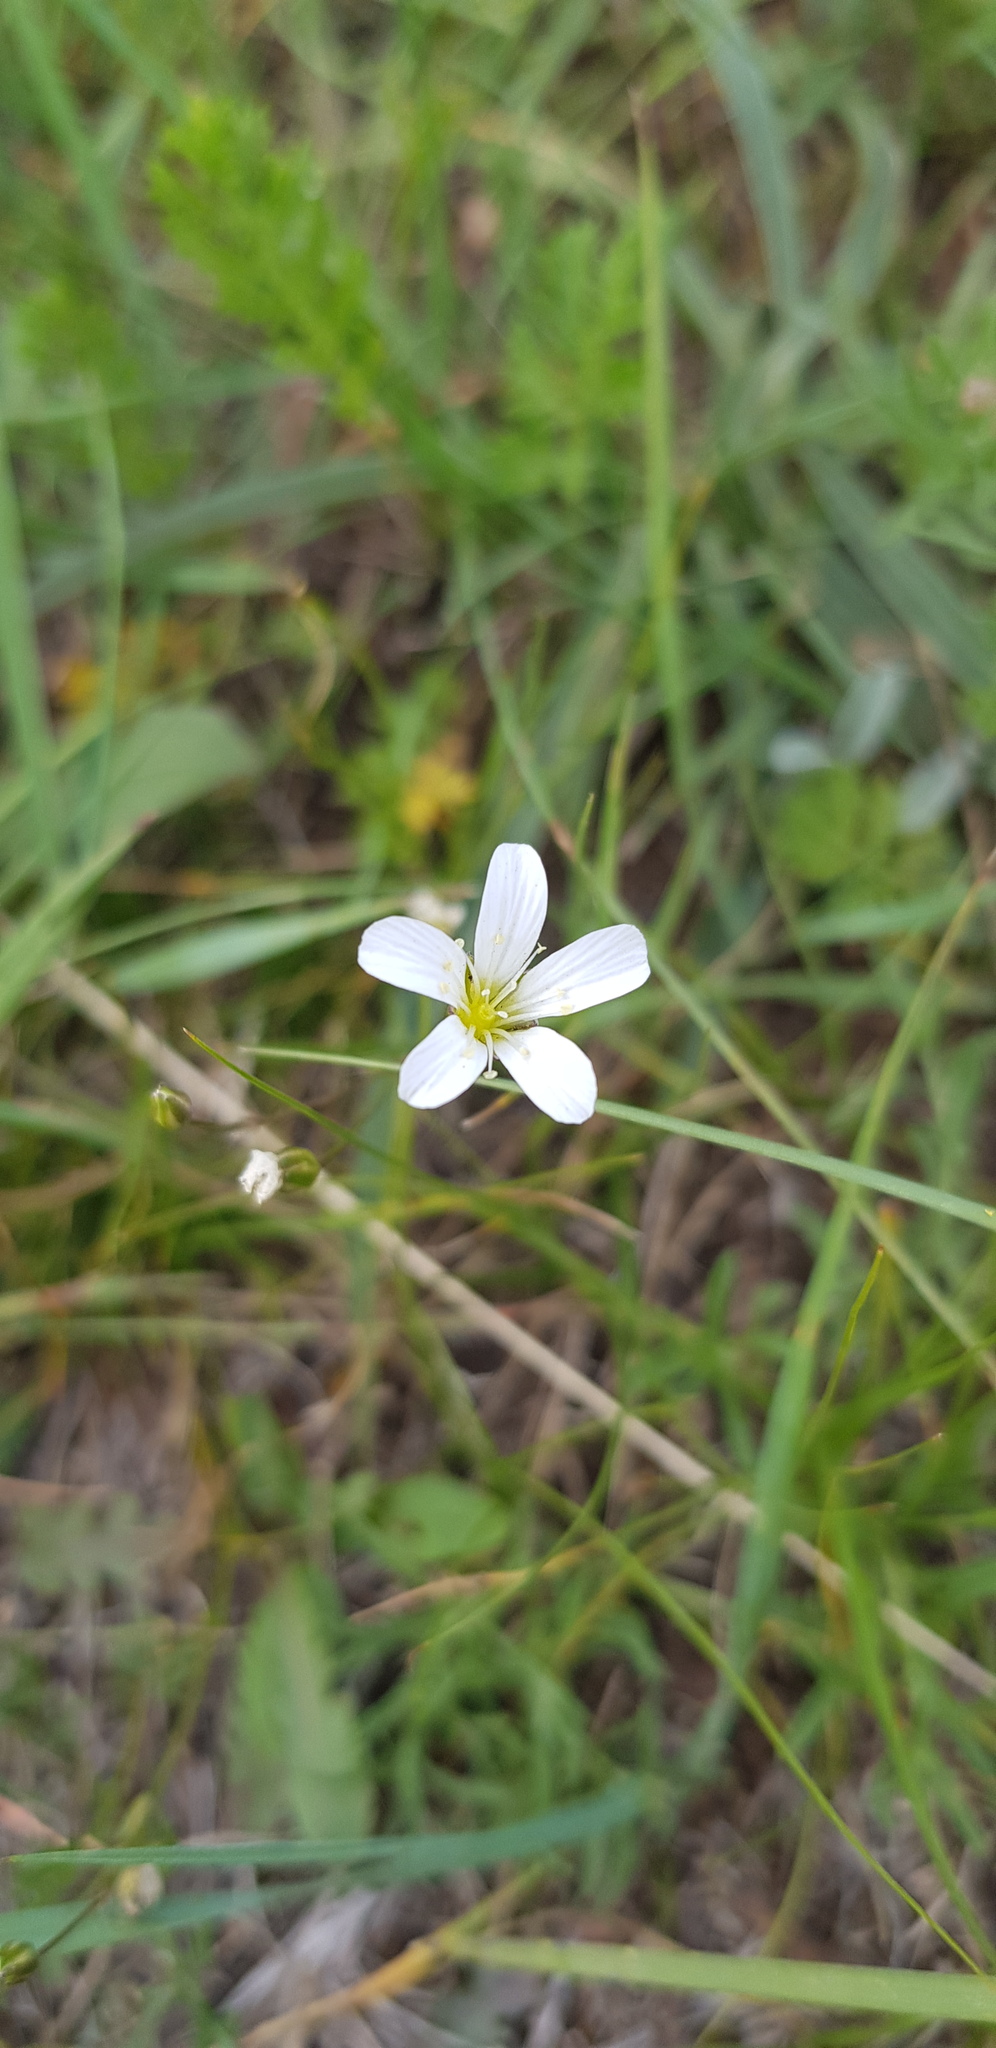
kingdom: Plantae
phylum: Tracheophyta
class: Magnoliopsida
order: Caryophyllales
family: Caryophyllaceae
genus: Eremogone
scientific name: Eremogone capillaris
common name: Slender mountain sandwort
